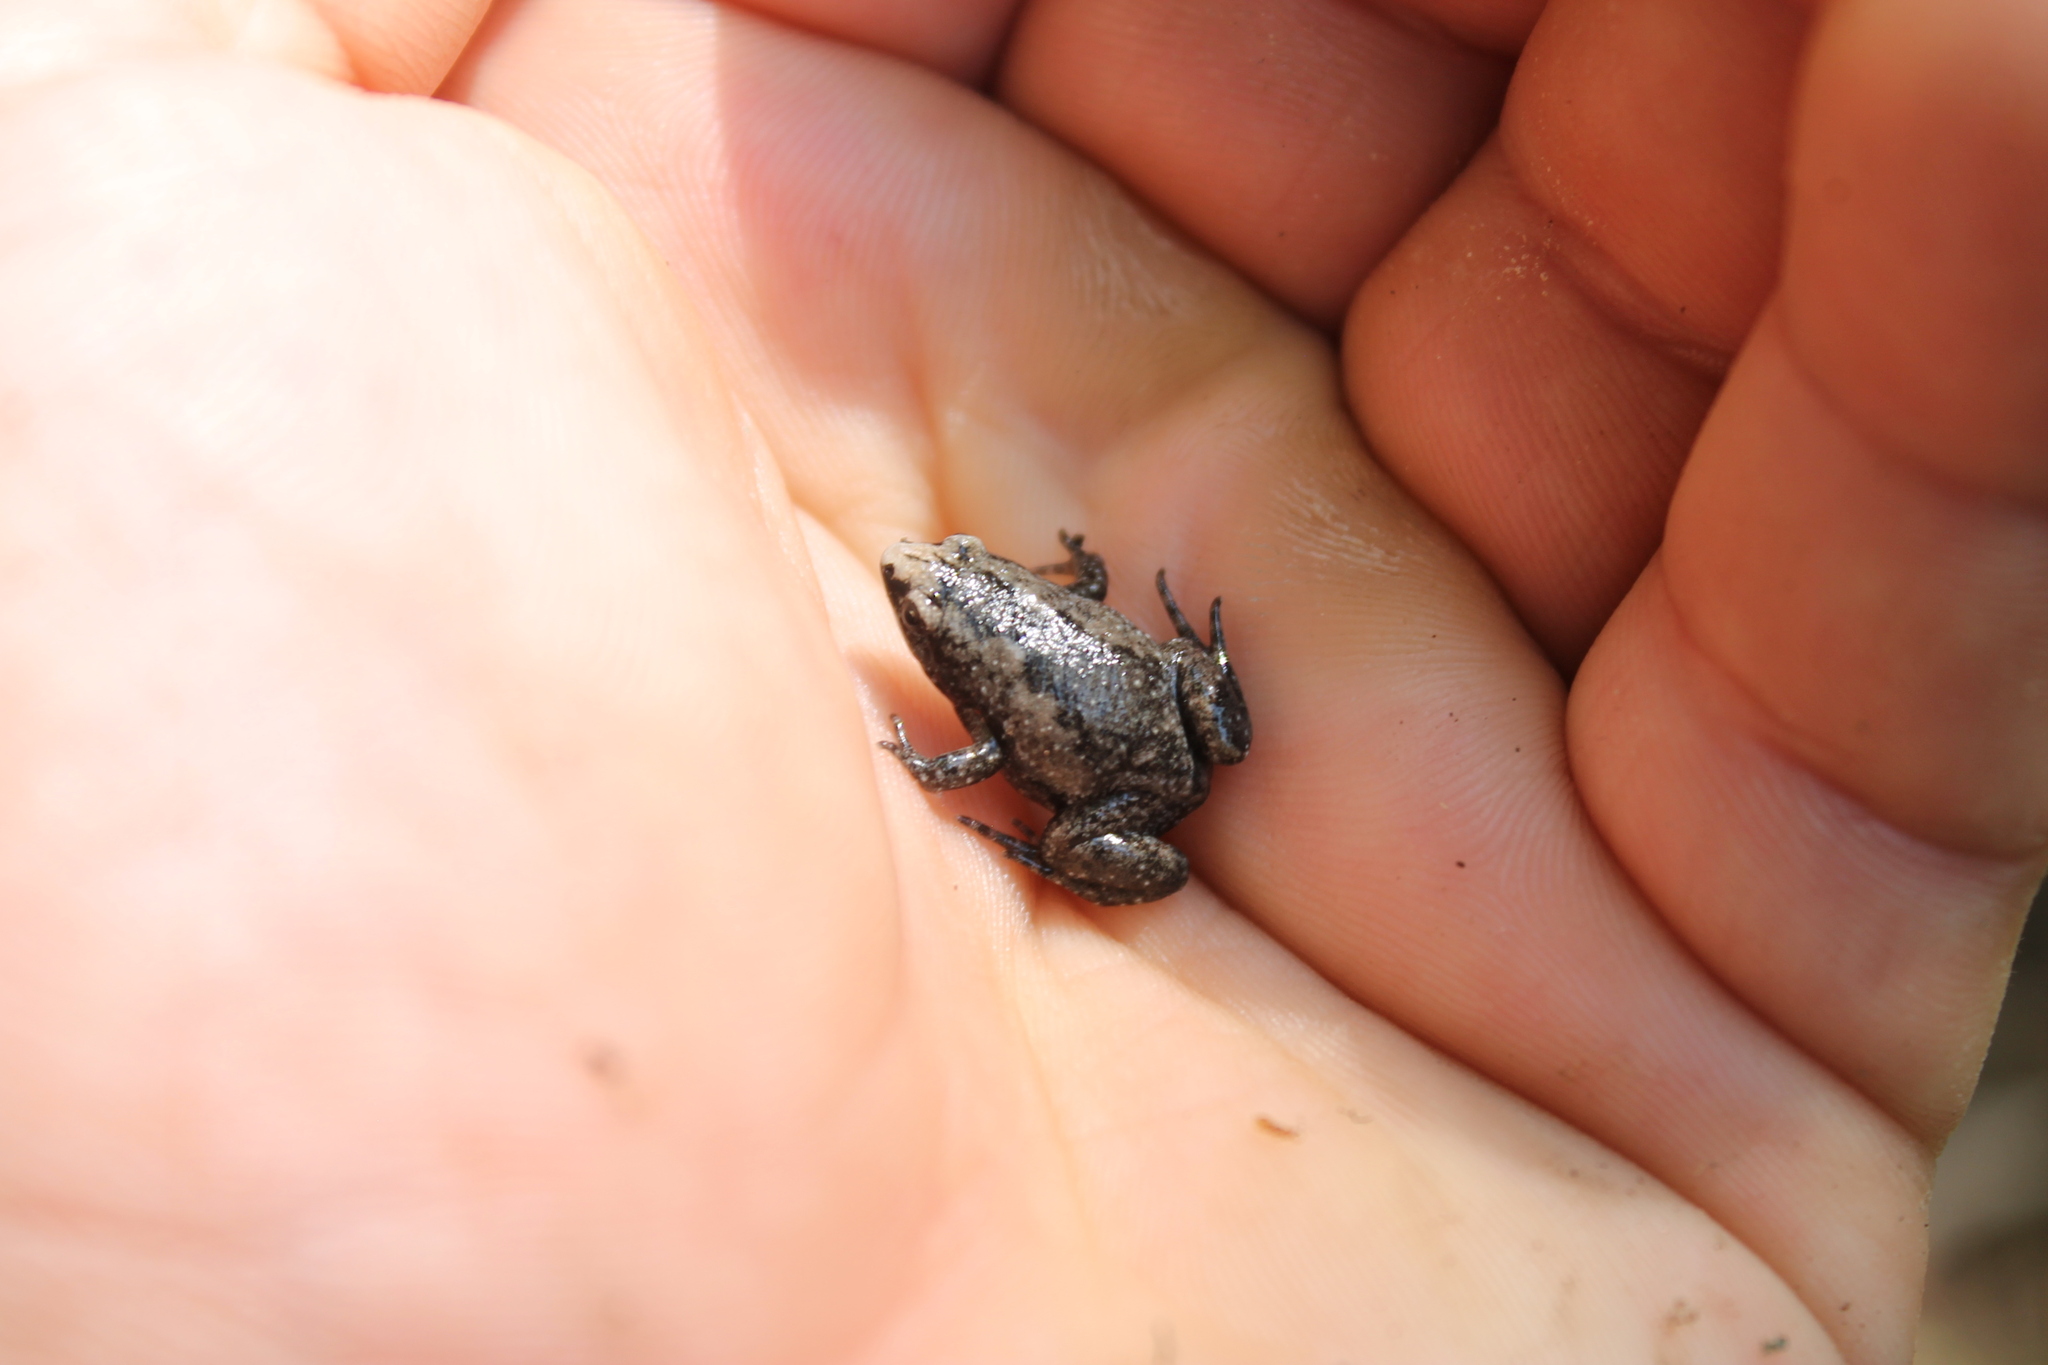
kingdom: Animalia
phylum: Chordata
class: Amphibia
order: Anura
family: Microhylidae
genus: Gastrophryne
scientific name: Gastrophryne carolinensis
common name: Eastern narrowmouth toad
